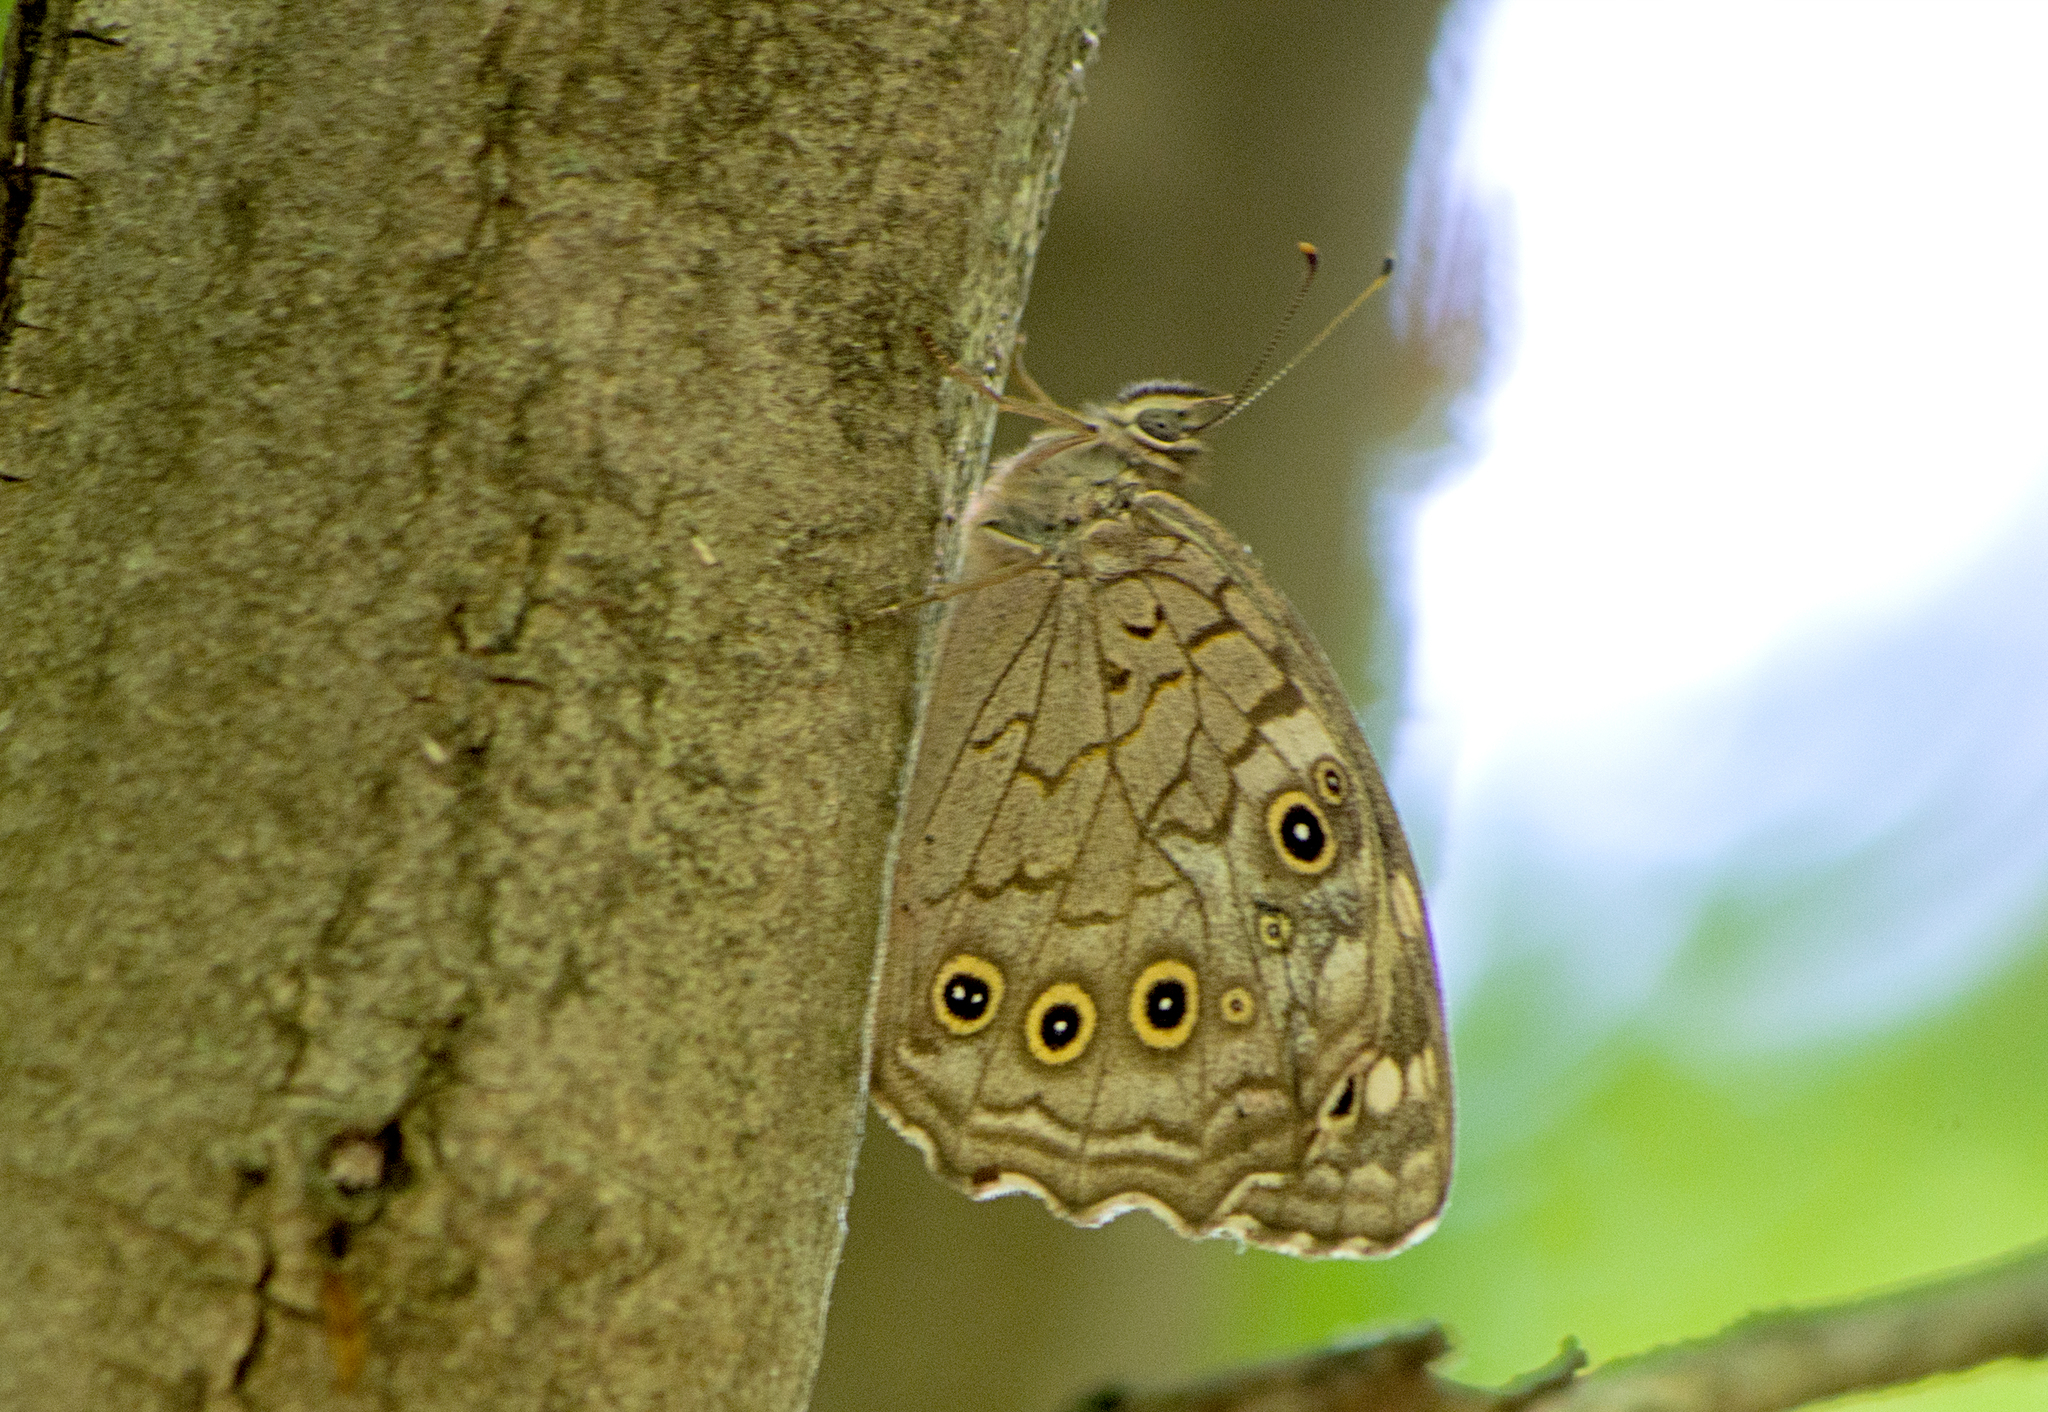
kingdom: Animalia
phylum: Arthropoda
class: Insecta
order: Lepidoptera
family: Nymphalidae
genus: Kirinia
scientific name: Kirinia roxelana
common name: Lattice brown
